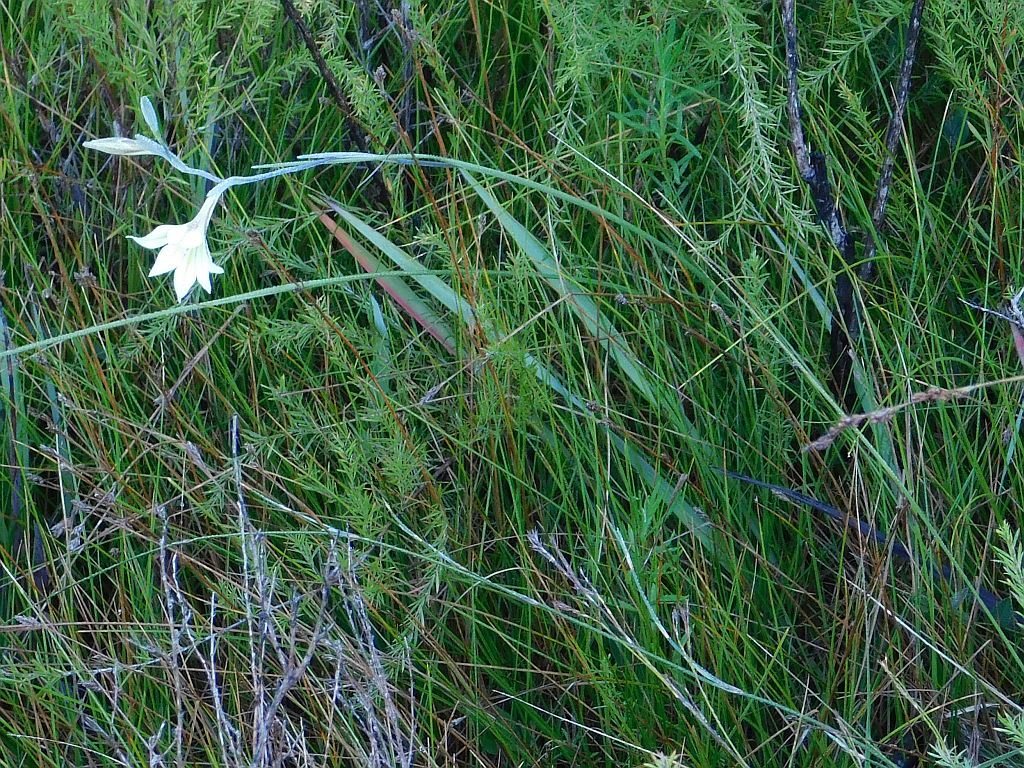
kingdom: Plantae
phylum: Tracheophyta
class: Liliopsida
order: Asparagales
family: Iridaceae
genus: Gladiolus
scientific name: Gladiolus tristis
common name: Ever-flowering gladiolus
